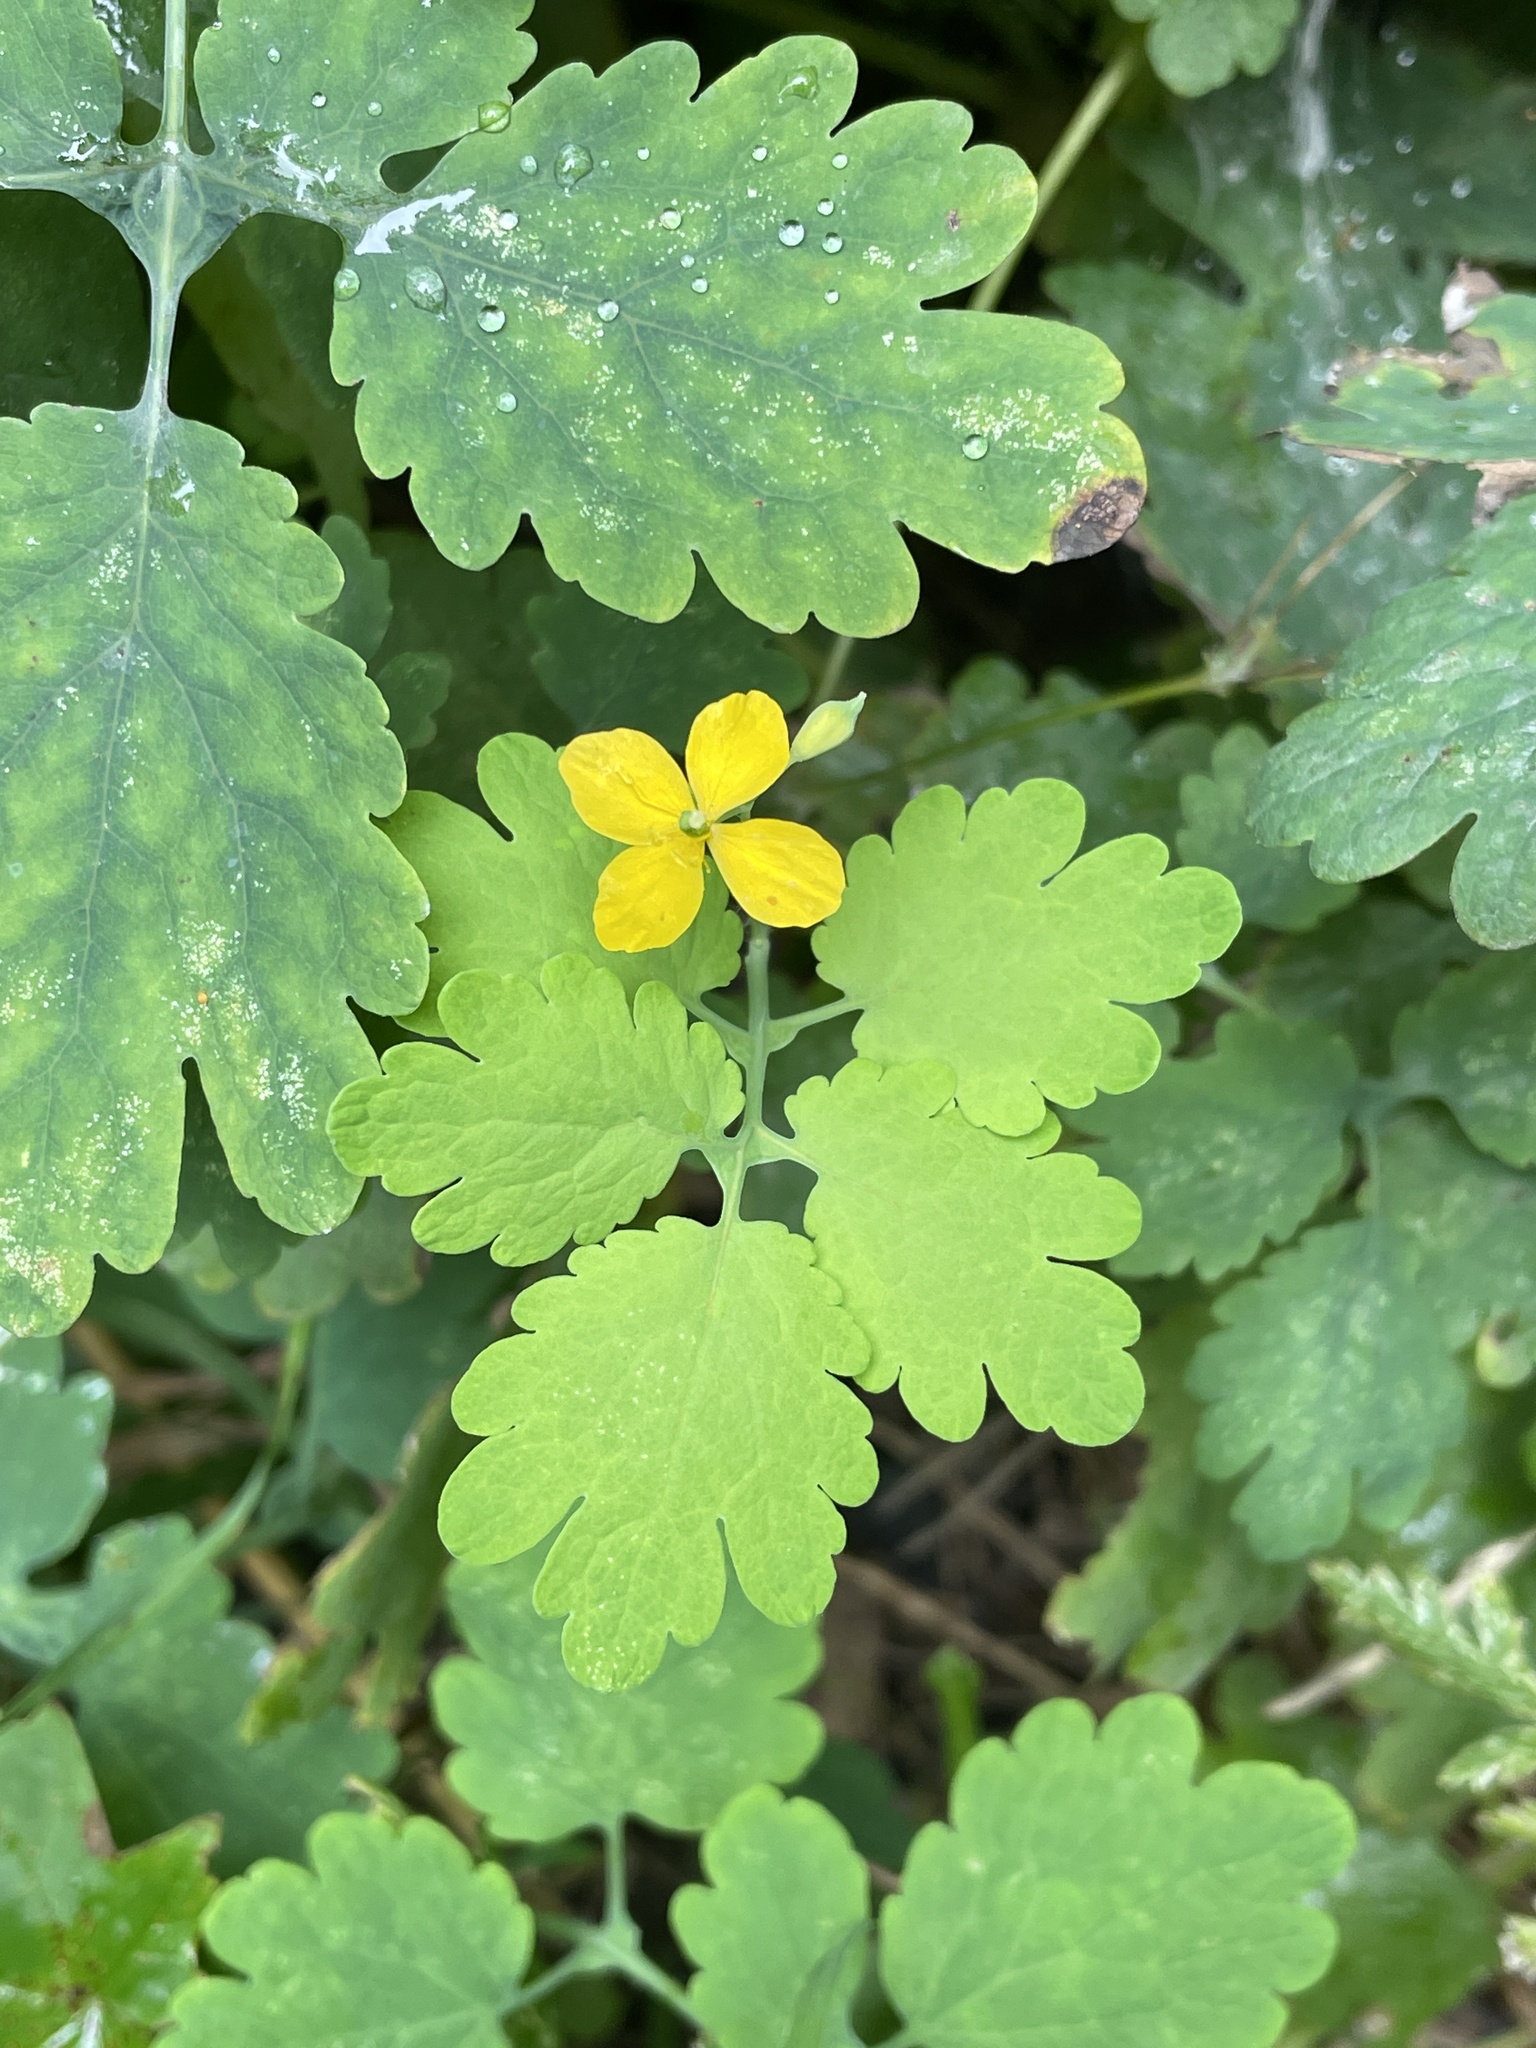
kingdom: Plantae
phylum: Tracheophyta
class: Magnoliopsida
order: Ranunculales
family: Papaveraceae
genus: Chelidonium
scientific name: Chelidonium majus
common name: Greater celandine
